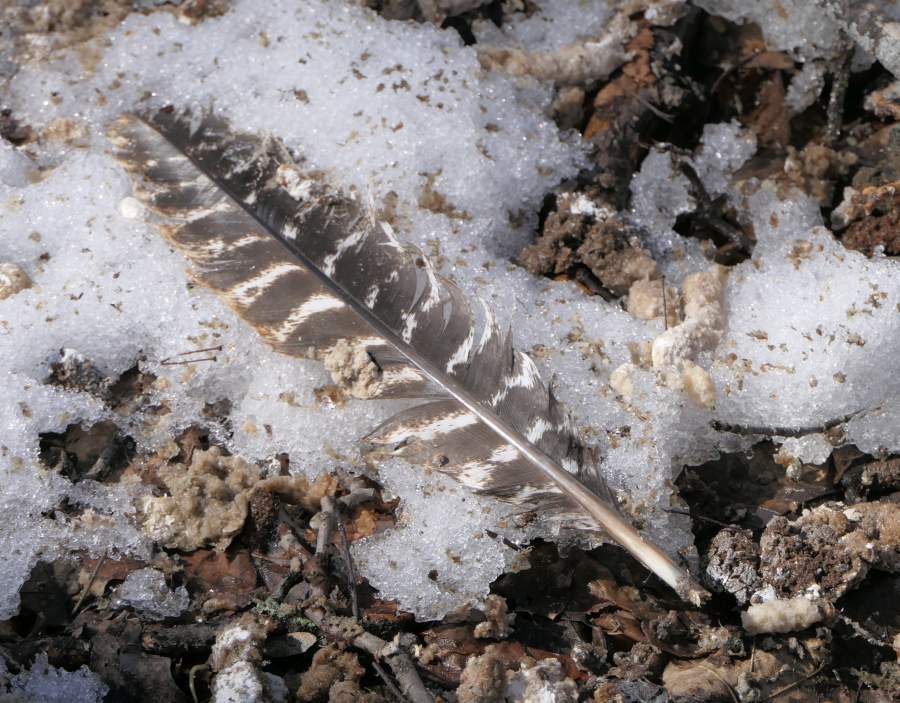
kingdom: Animalia
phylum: Chordata
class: Aves
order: Galliformes
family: Phasianidae
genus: Meleagris
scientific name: Meleagris gallopavo
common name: Wild turkey
